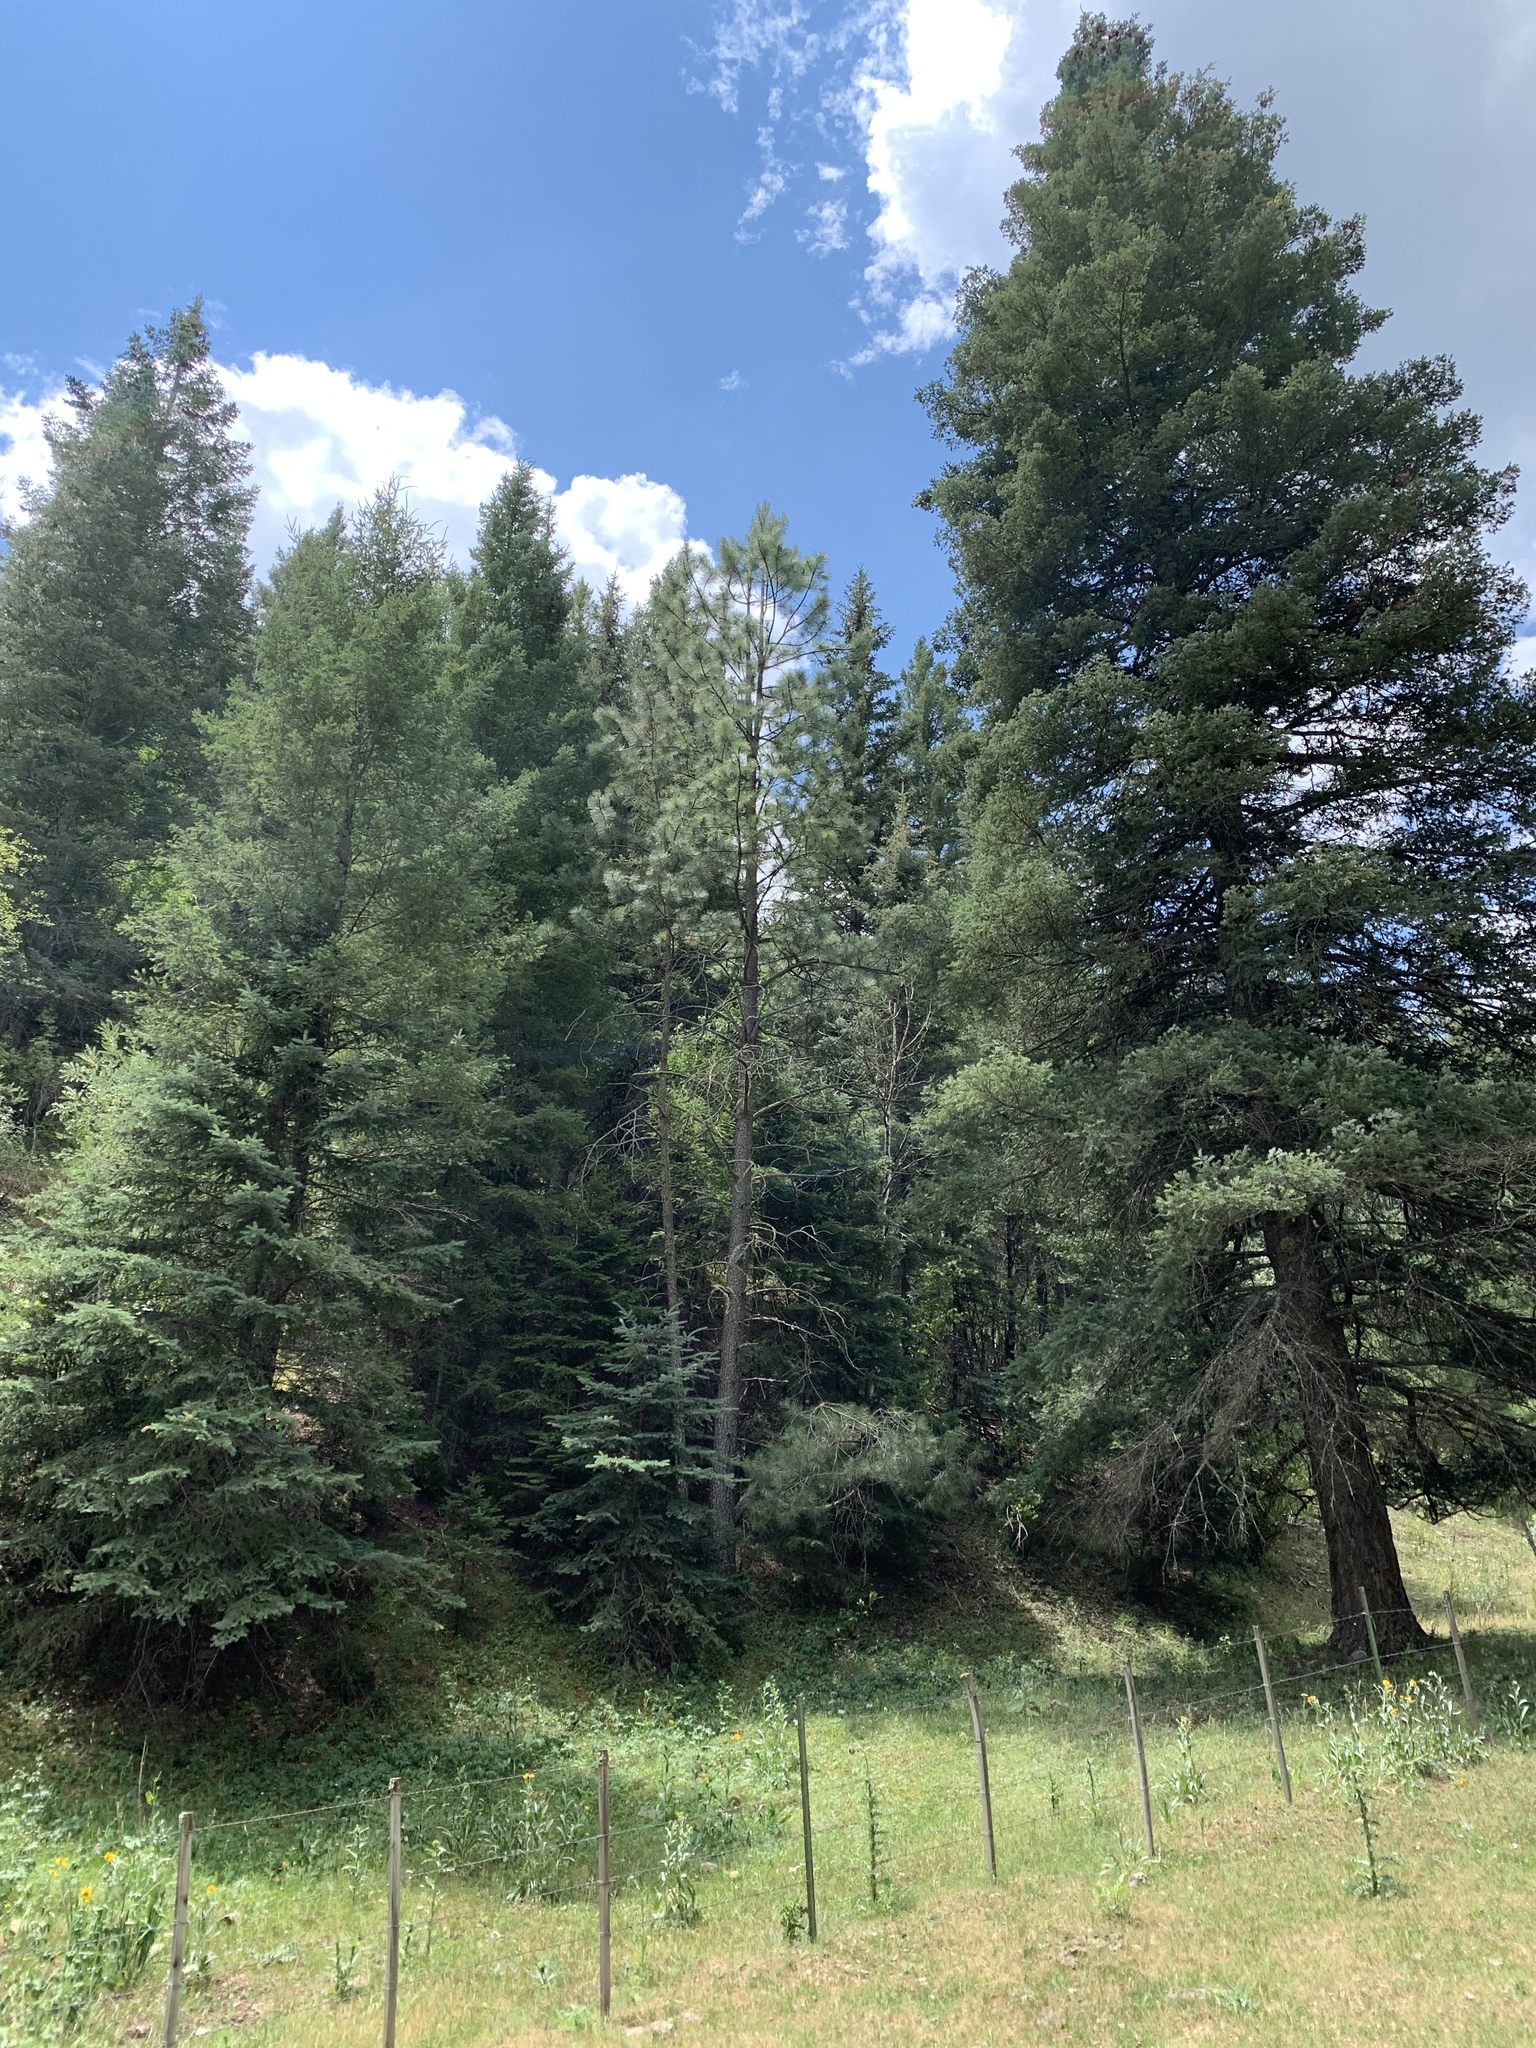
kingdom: Plantae
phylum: Tracheophyta
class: Pinopsida
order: Pinales
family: Pinaceae
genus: Pinus
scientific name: Pinus ponderosa
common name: Western yellow-pine
